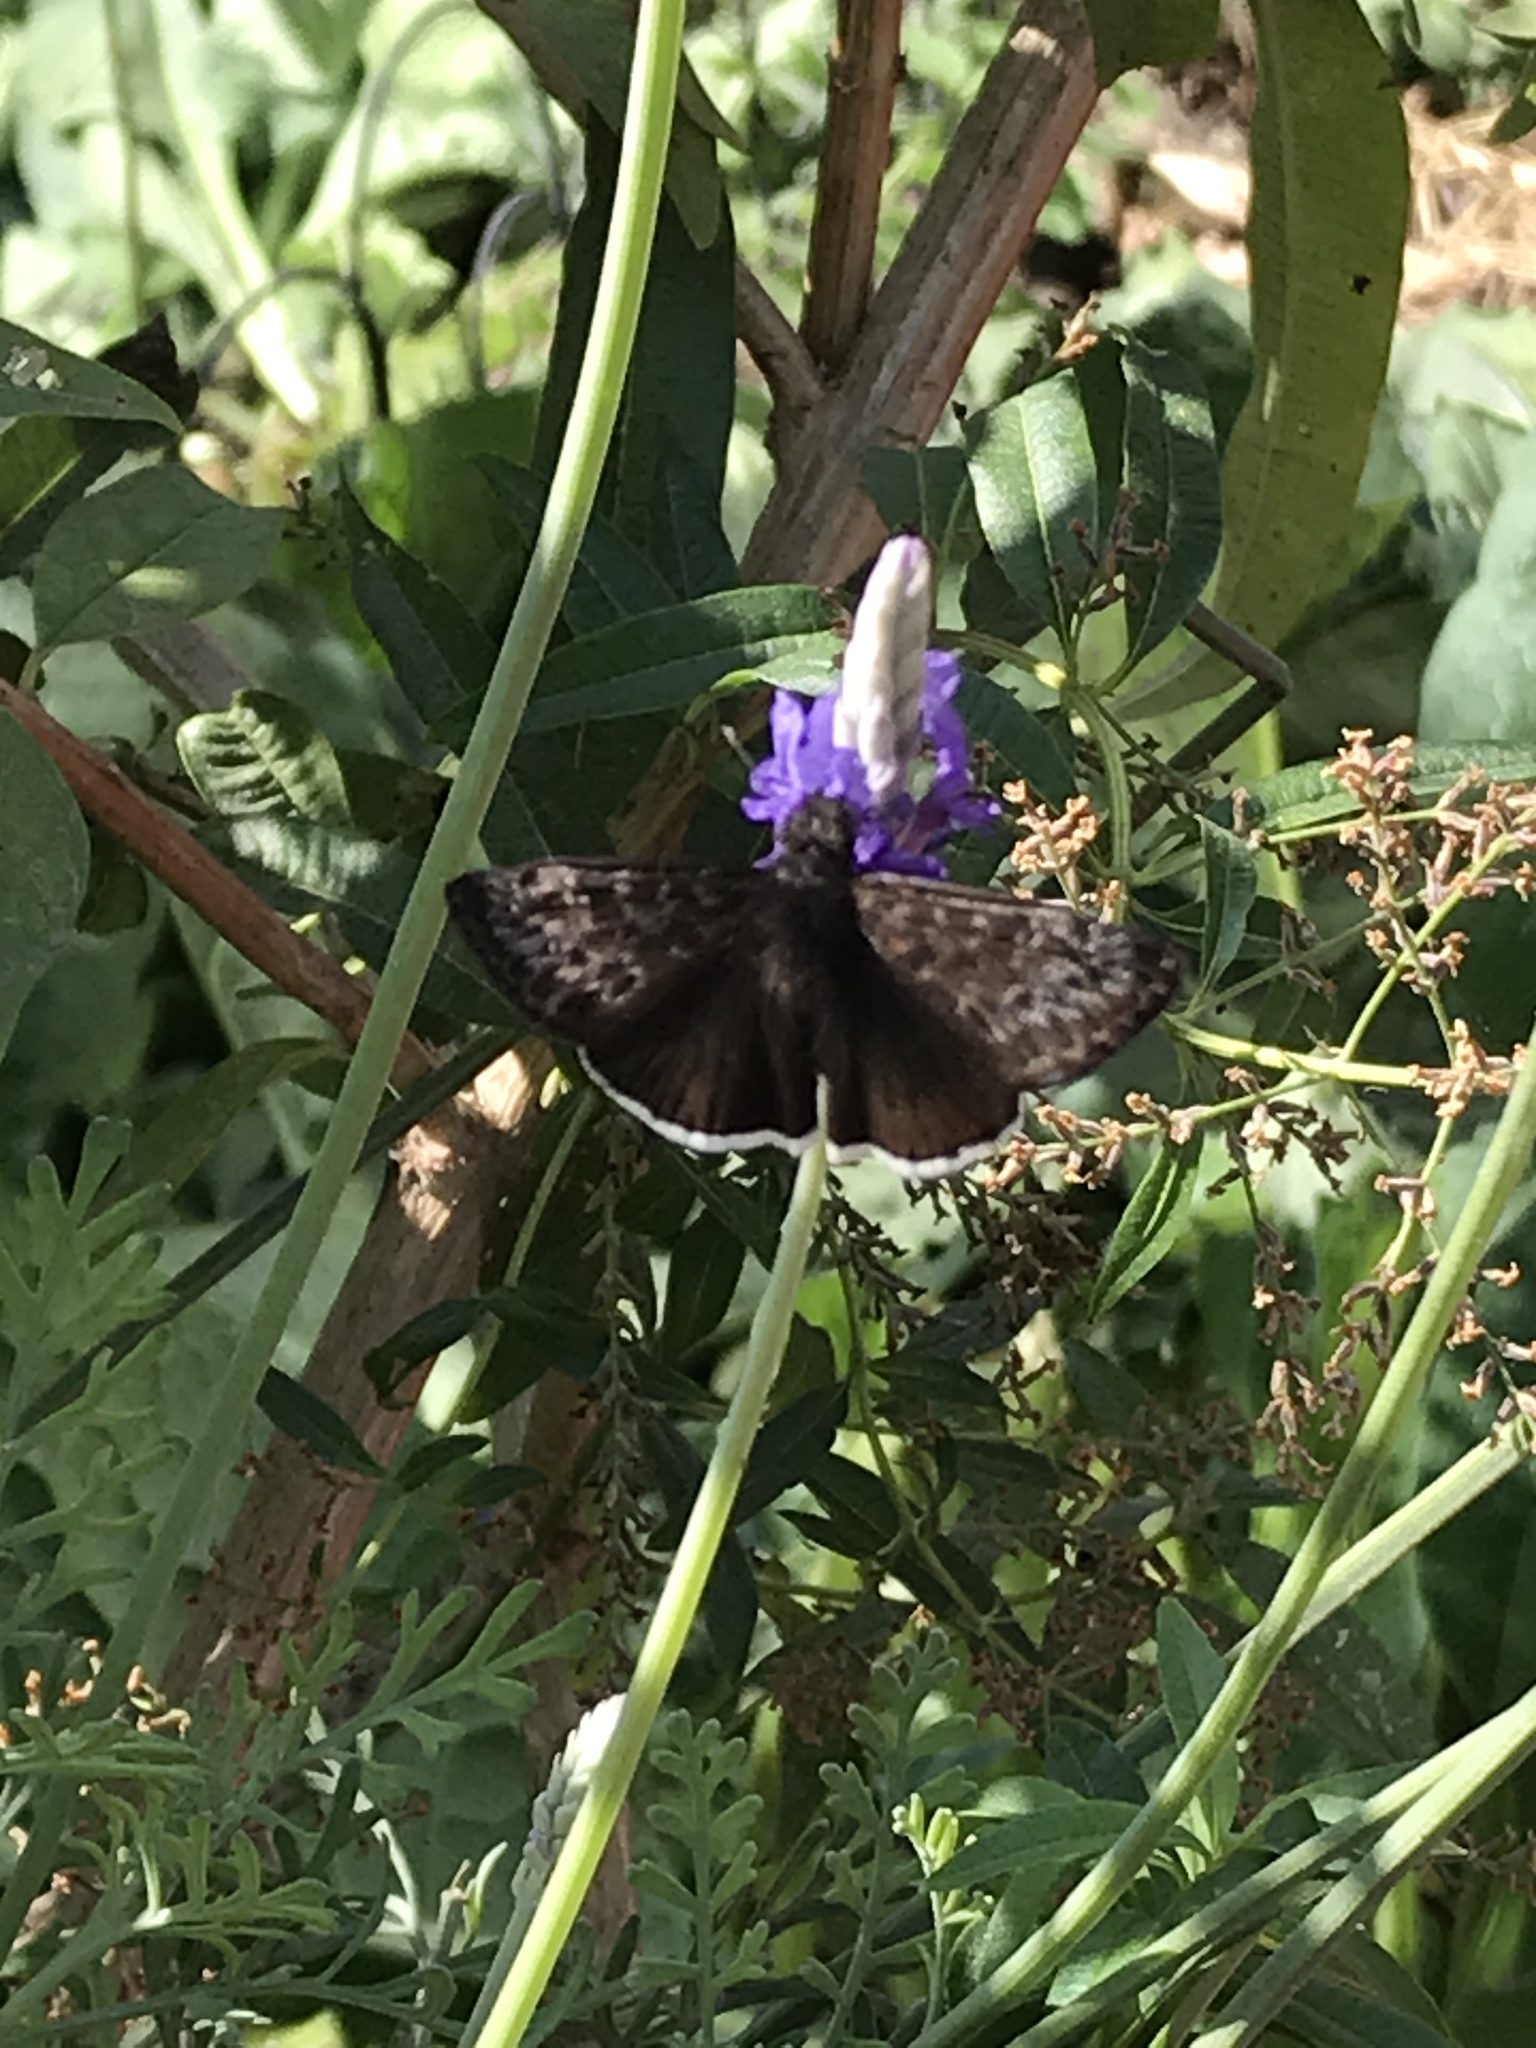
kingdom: Animalia
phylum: Arthropoda
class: Insecta
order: Lepidoptera
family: Hesperiidae
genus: Erynnis
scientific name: Erynnis tristis
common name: Mournful duskywing
